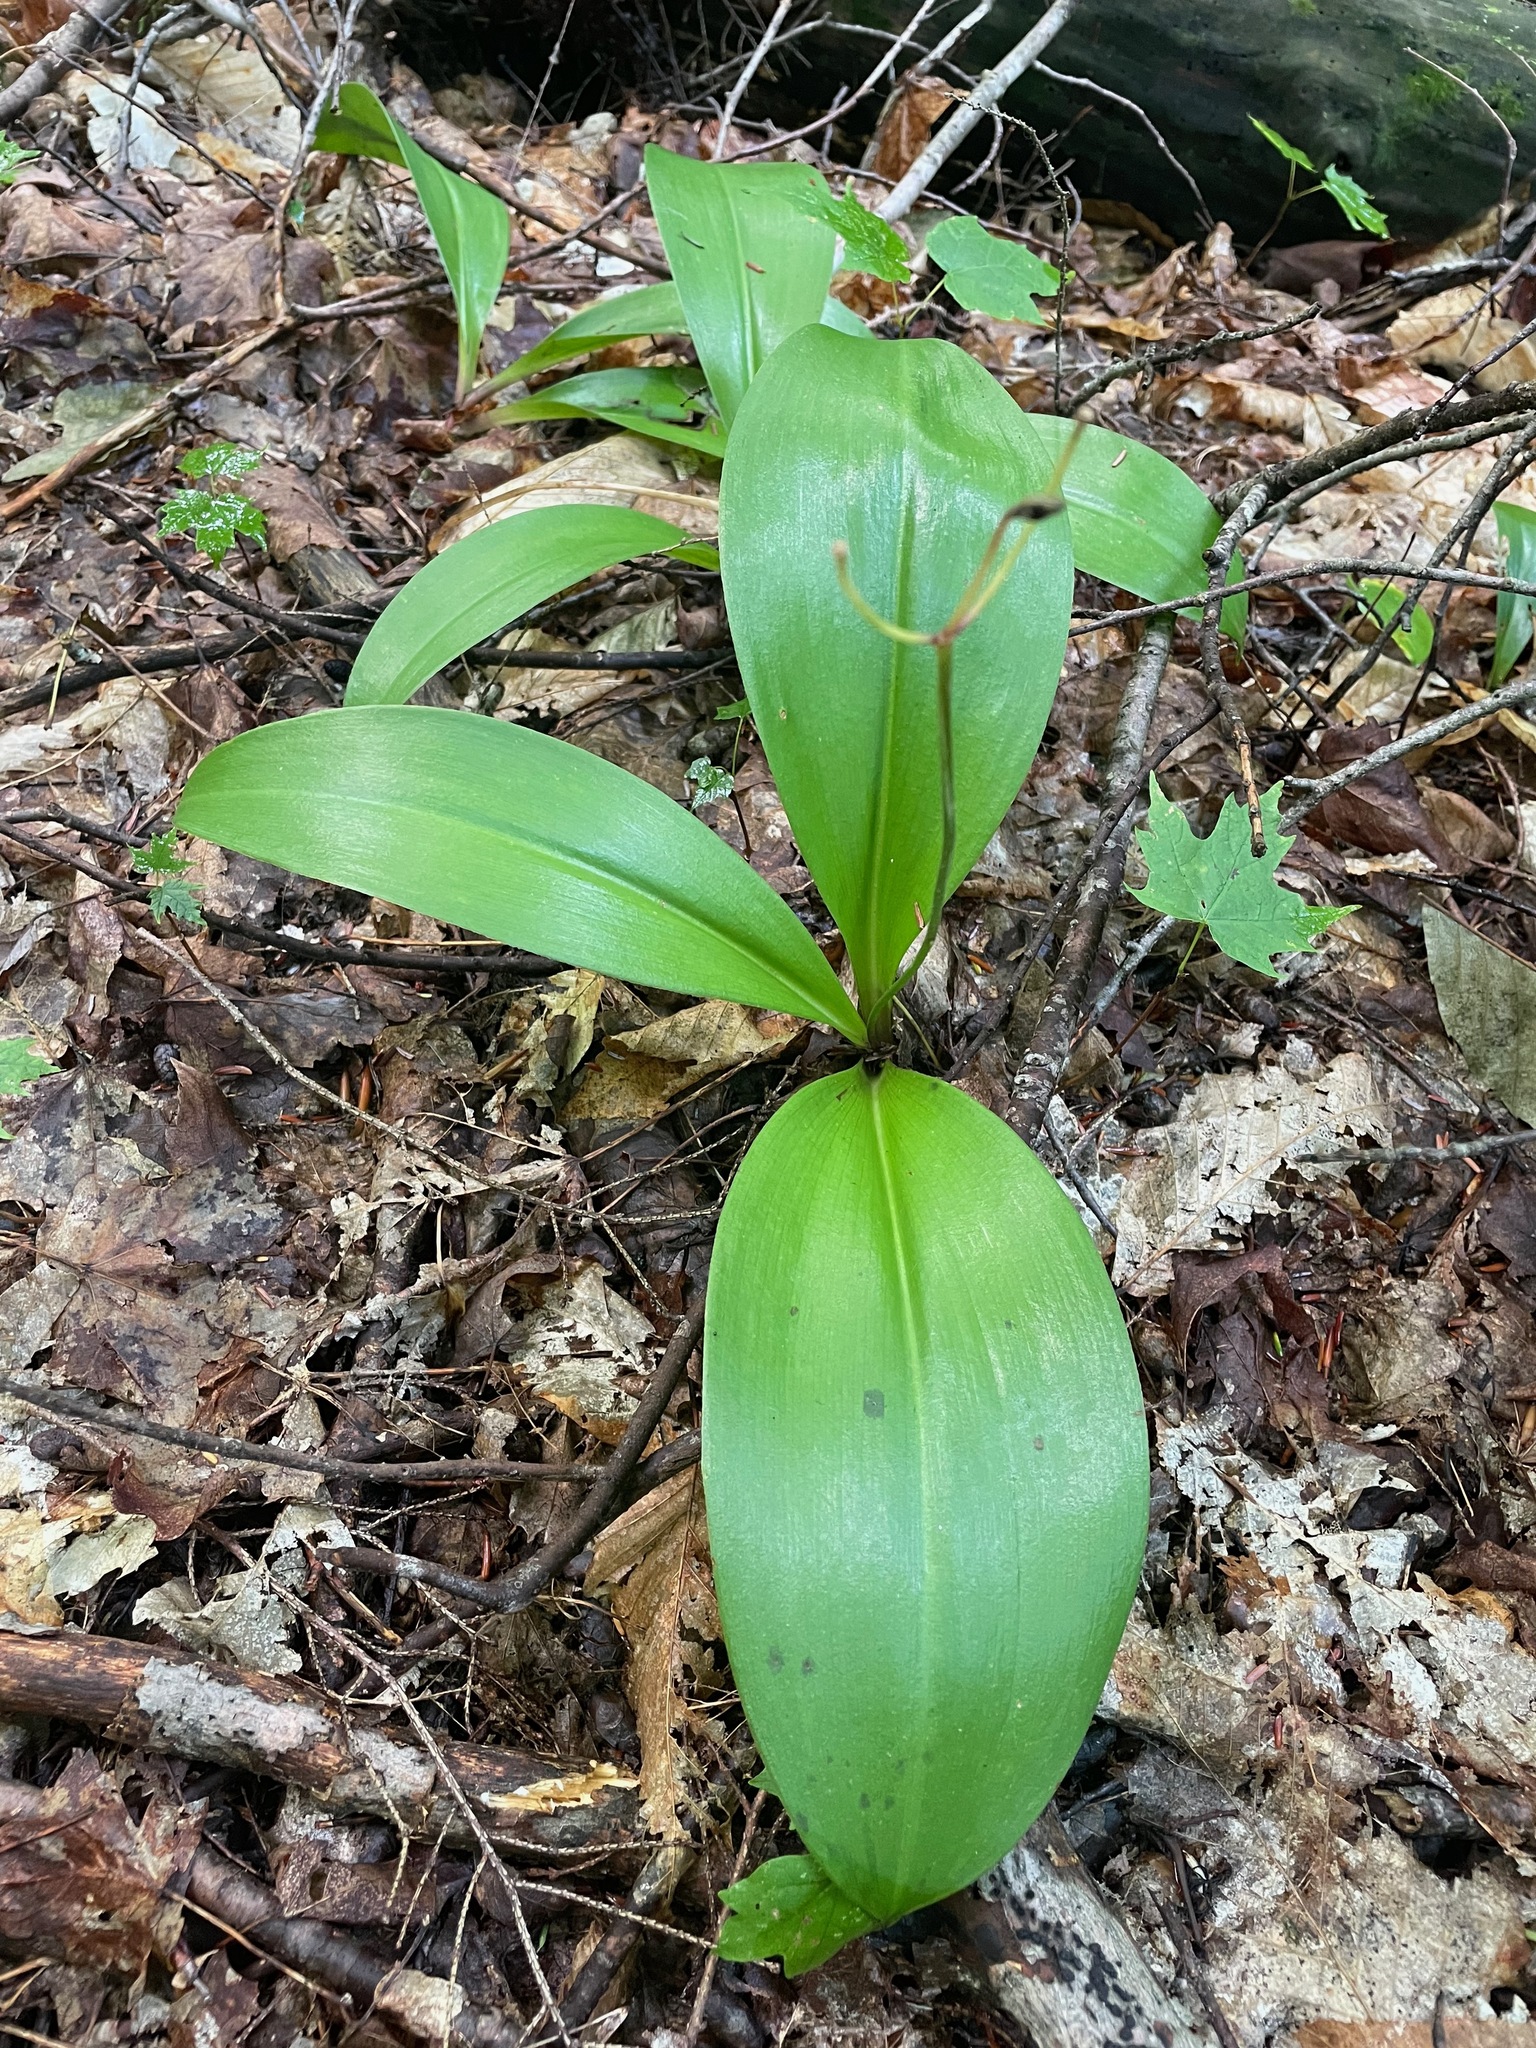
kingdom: Plantae
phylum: Tracheophyta
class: Liliopsida
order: Liliales
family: Liliaceae
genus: Clintonia
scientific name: Clintonia borealis
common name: Yellow clintonia
